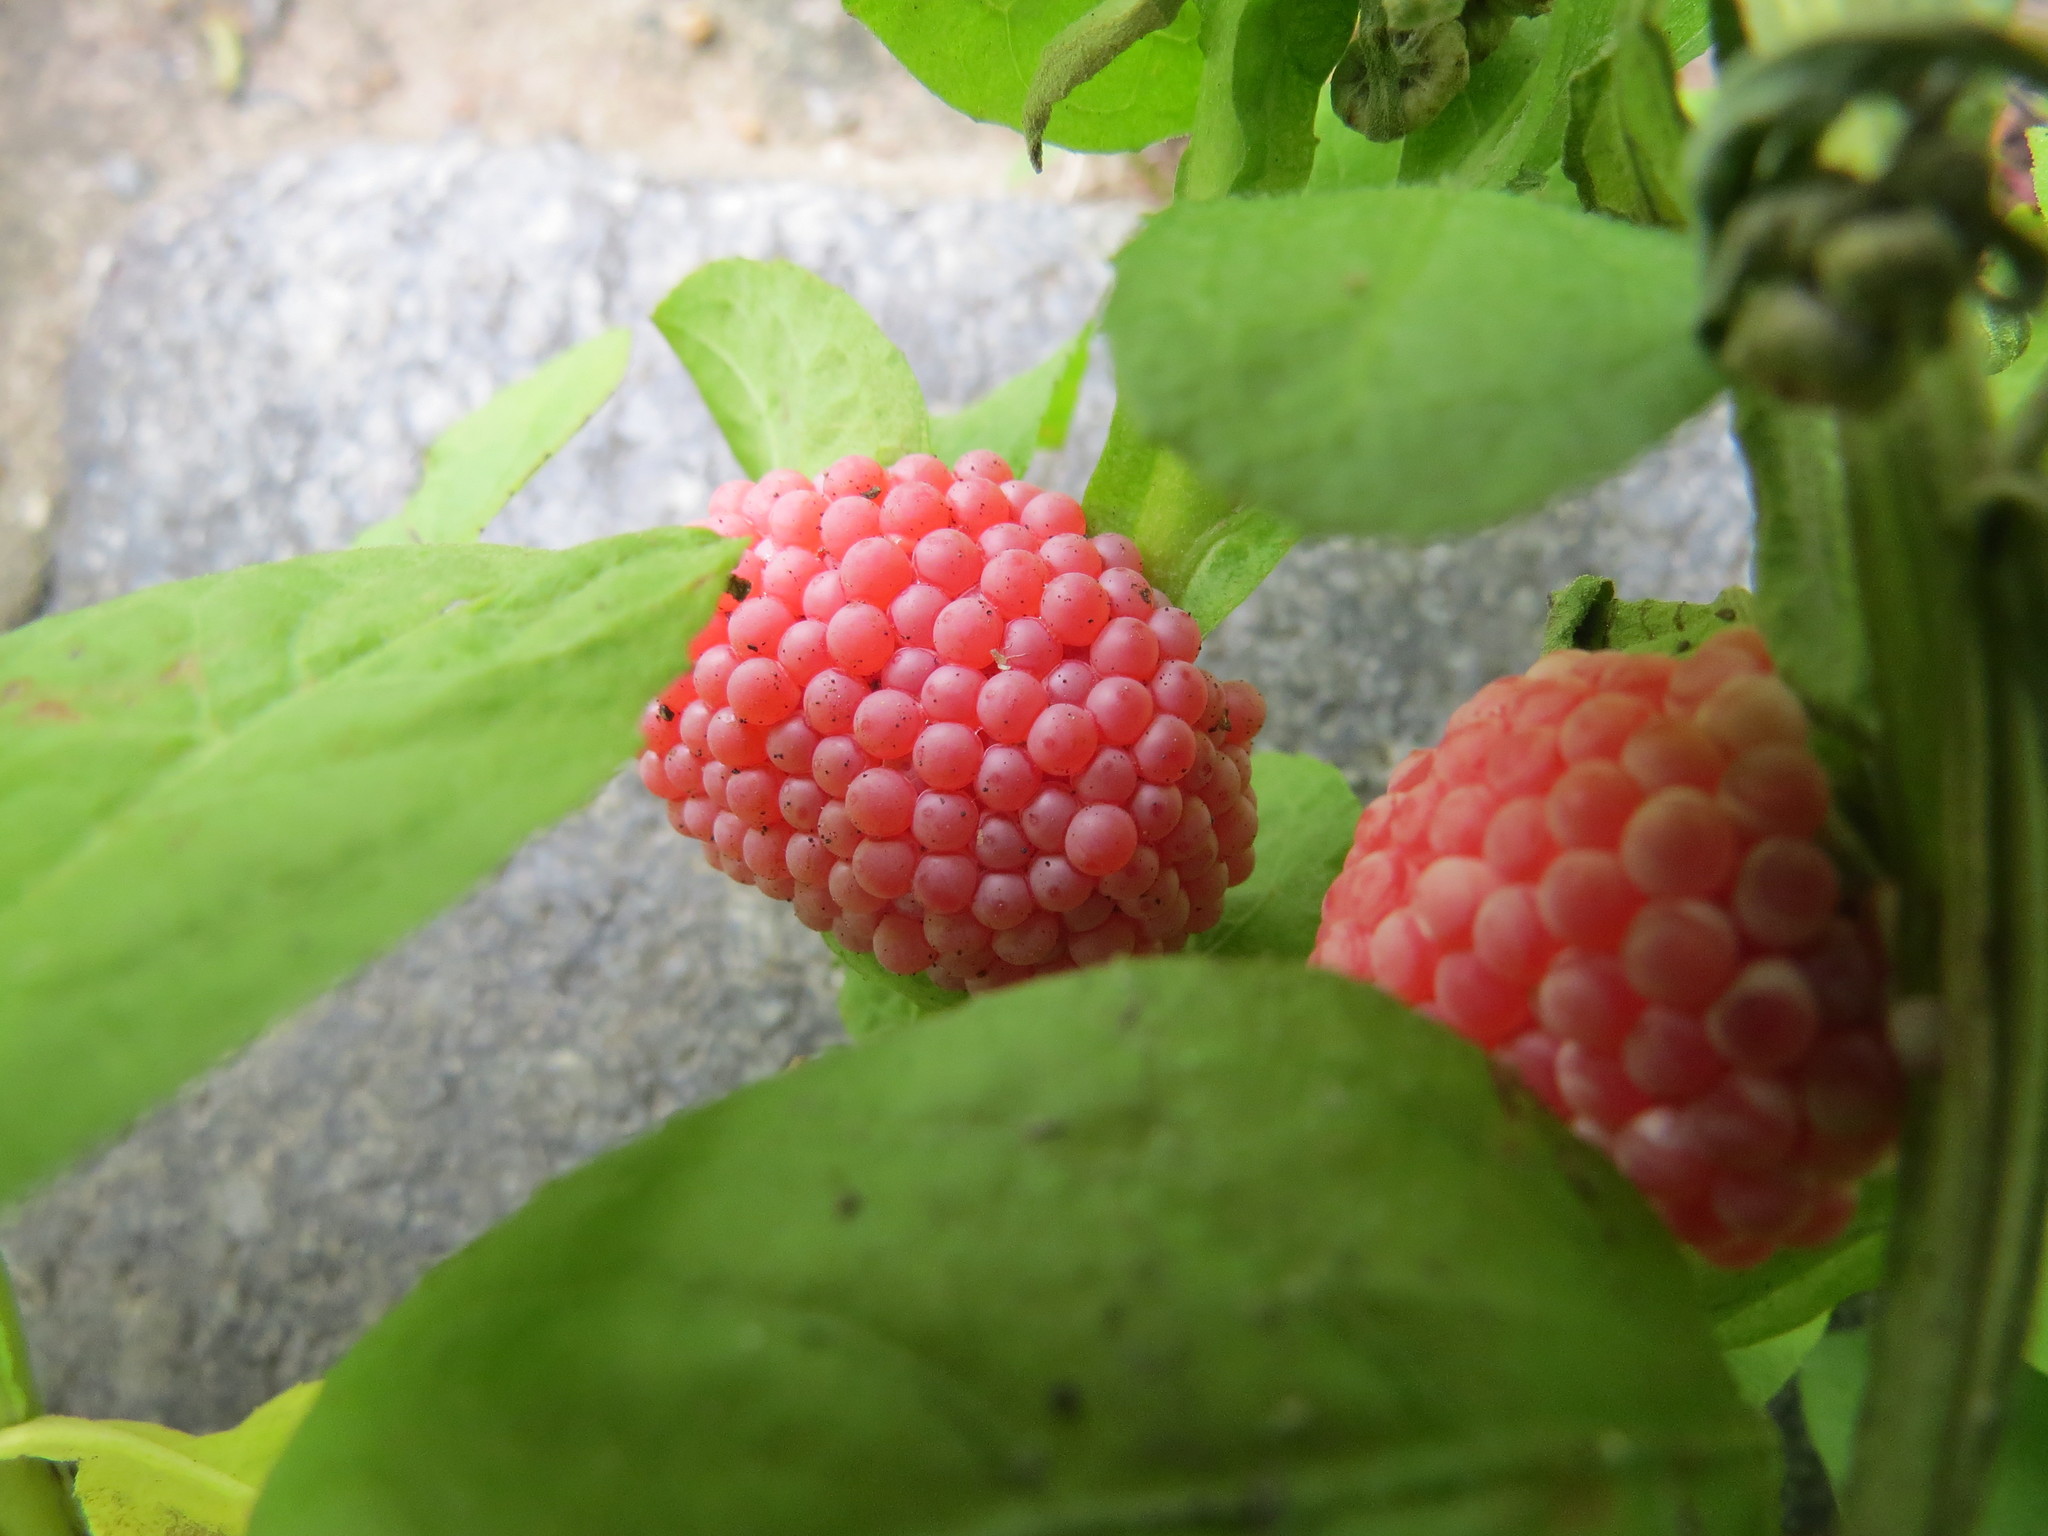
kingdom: Animalia
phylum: Mollusca
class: Gastropoda
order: Architaenioglossa
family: Ampullariidae
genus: Pomacea
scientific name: Pomacea canaliculata
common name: Channeled applesnail
